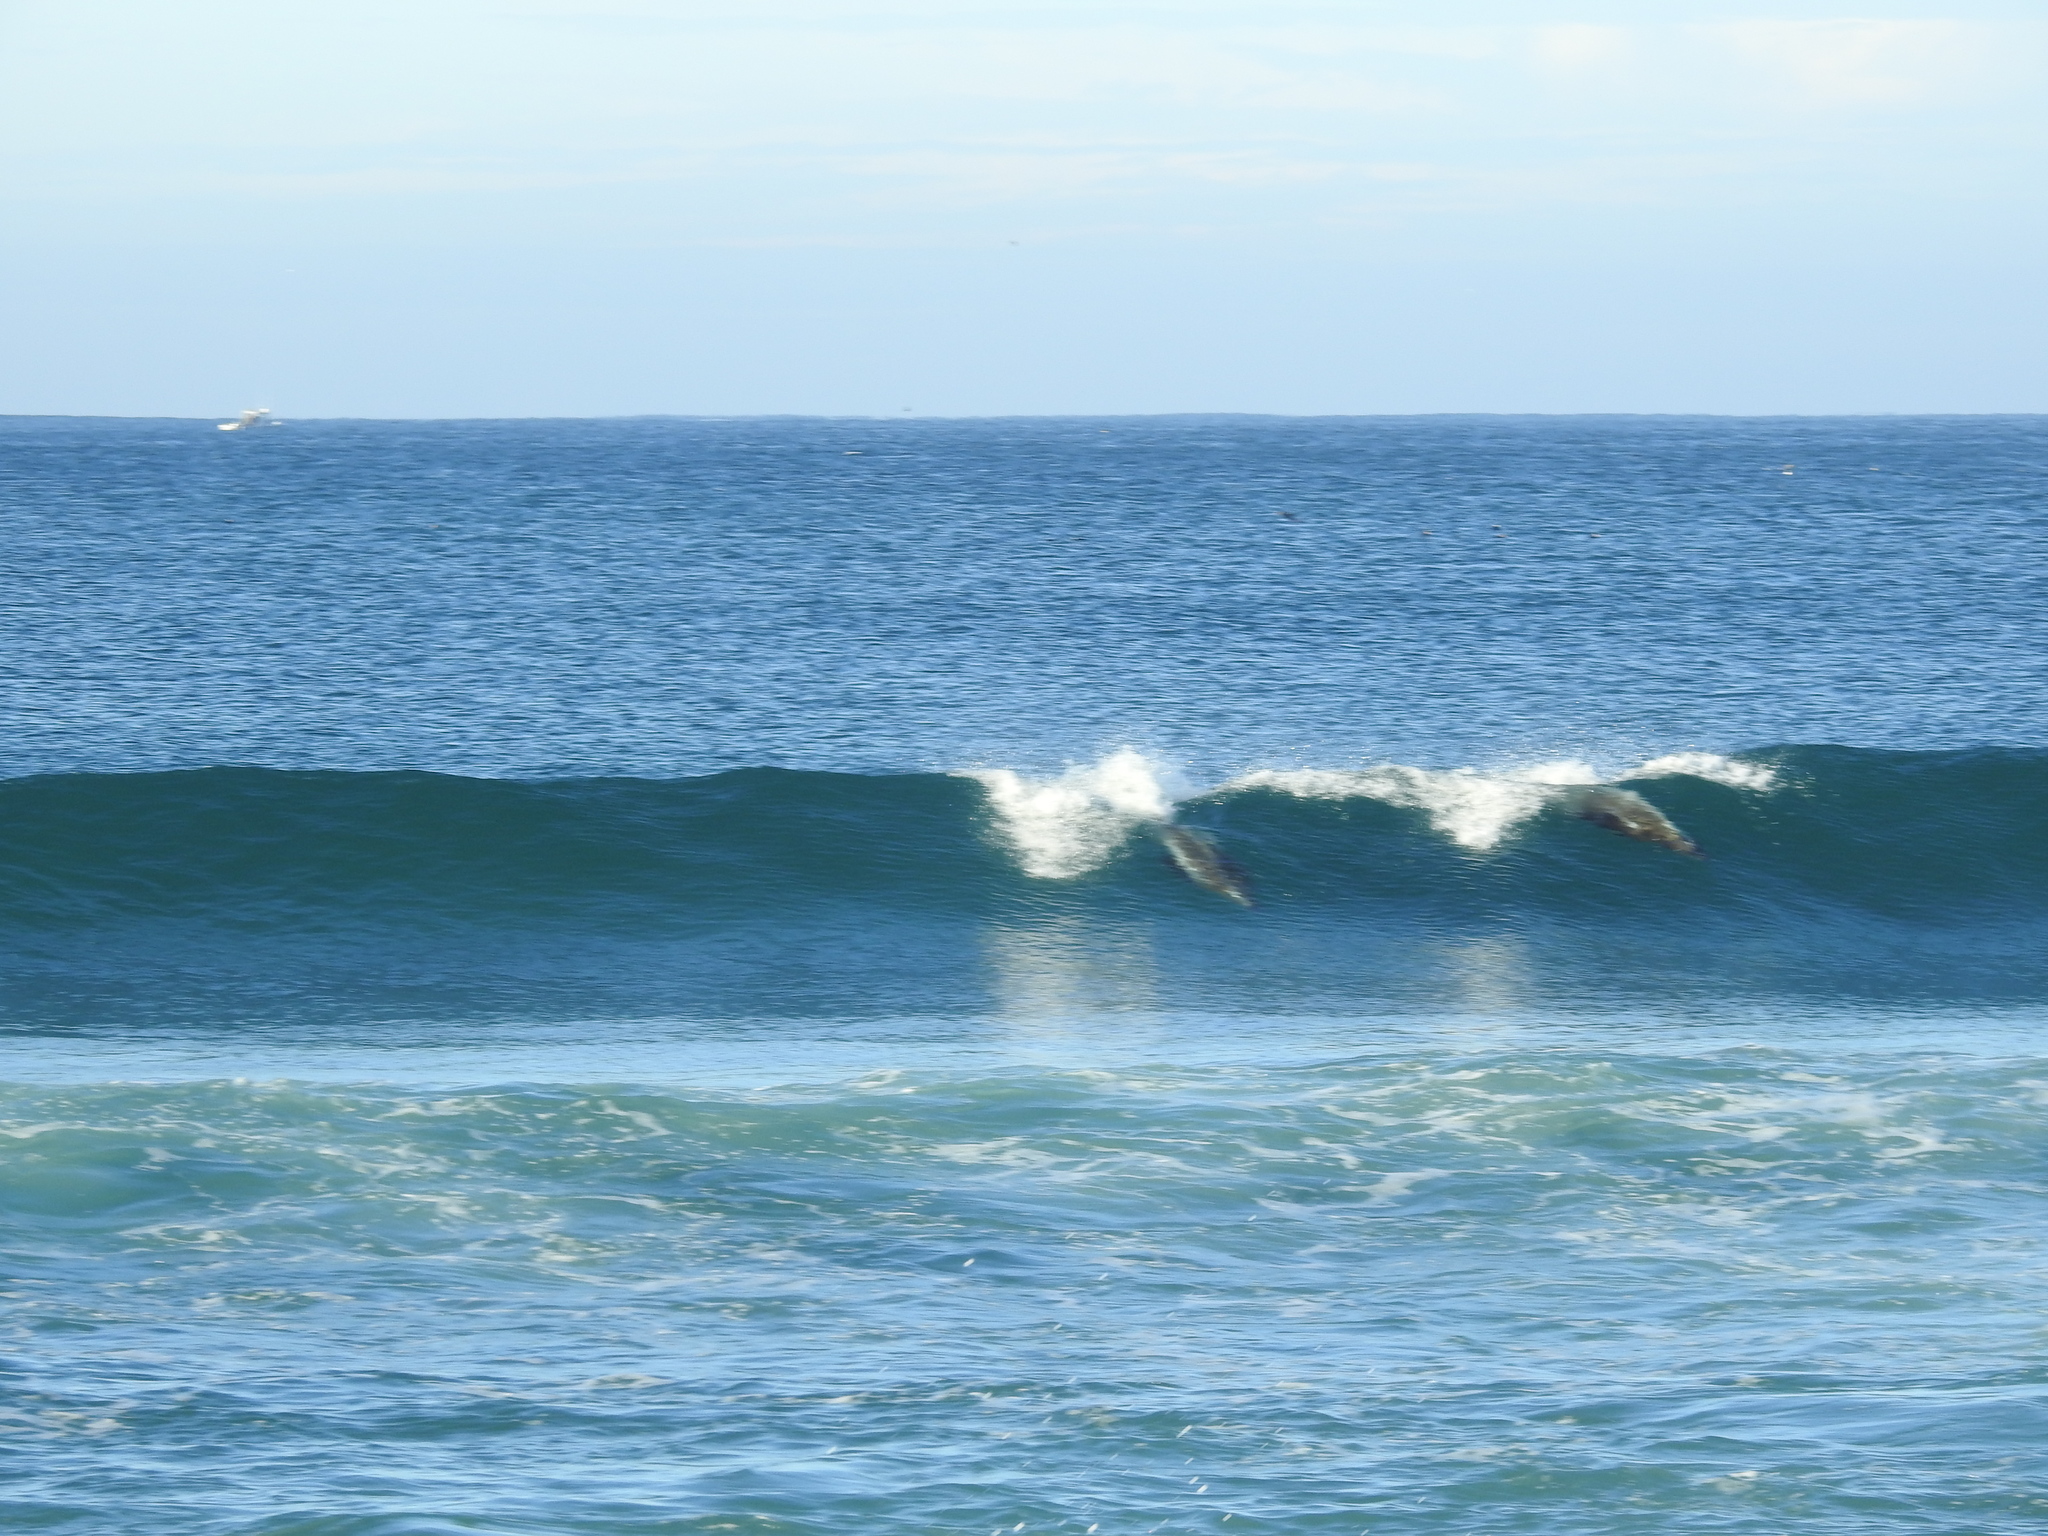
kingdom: Animalia
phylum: Chordata
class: Mammalia
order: Carnivora
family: Otariidae
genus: Zalophus
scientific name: Zalophus californianus
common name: California sea lion
